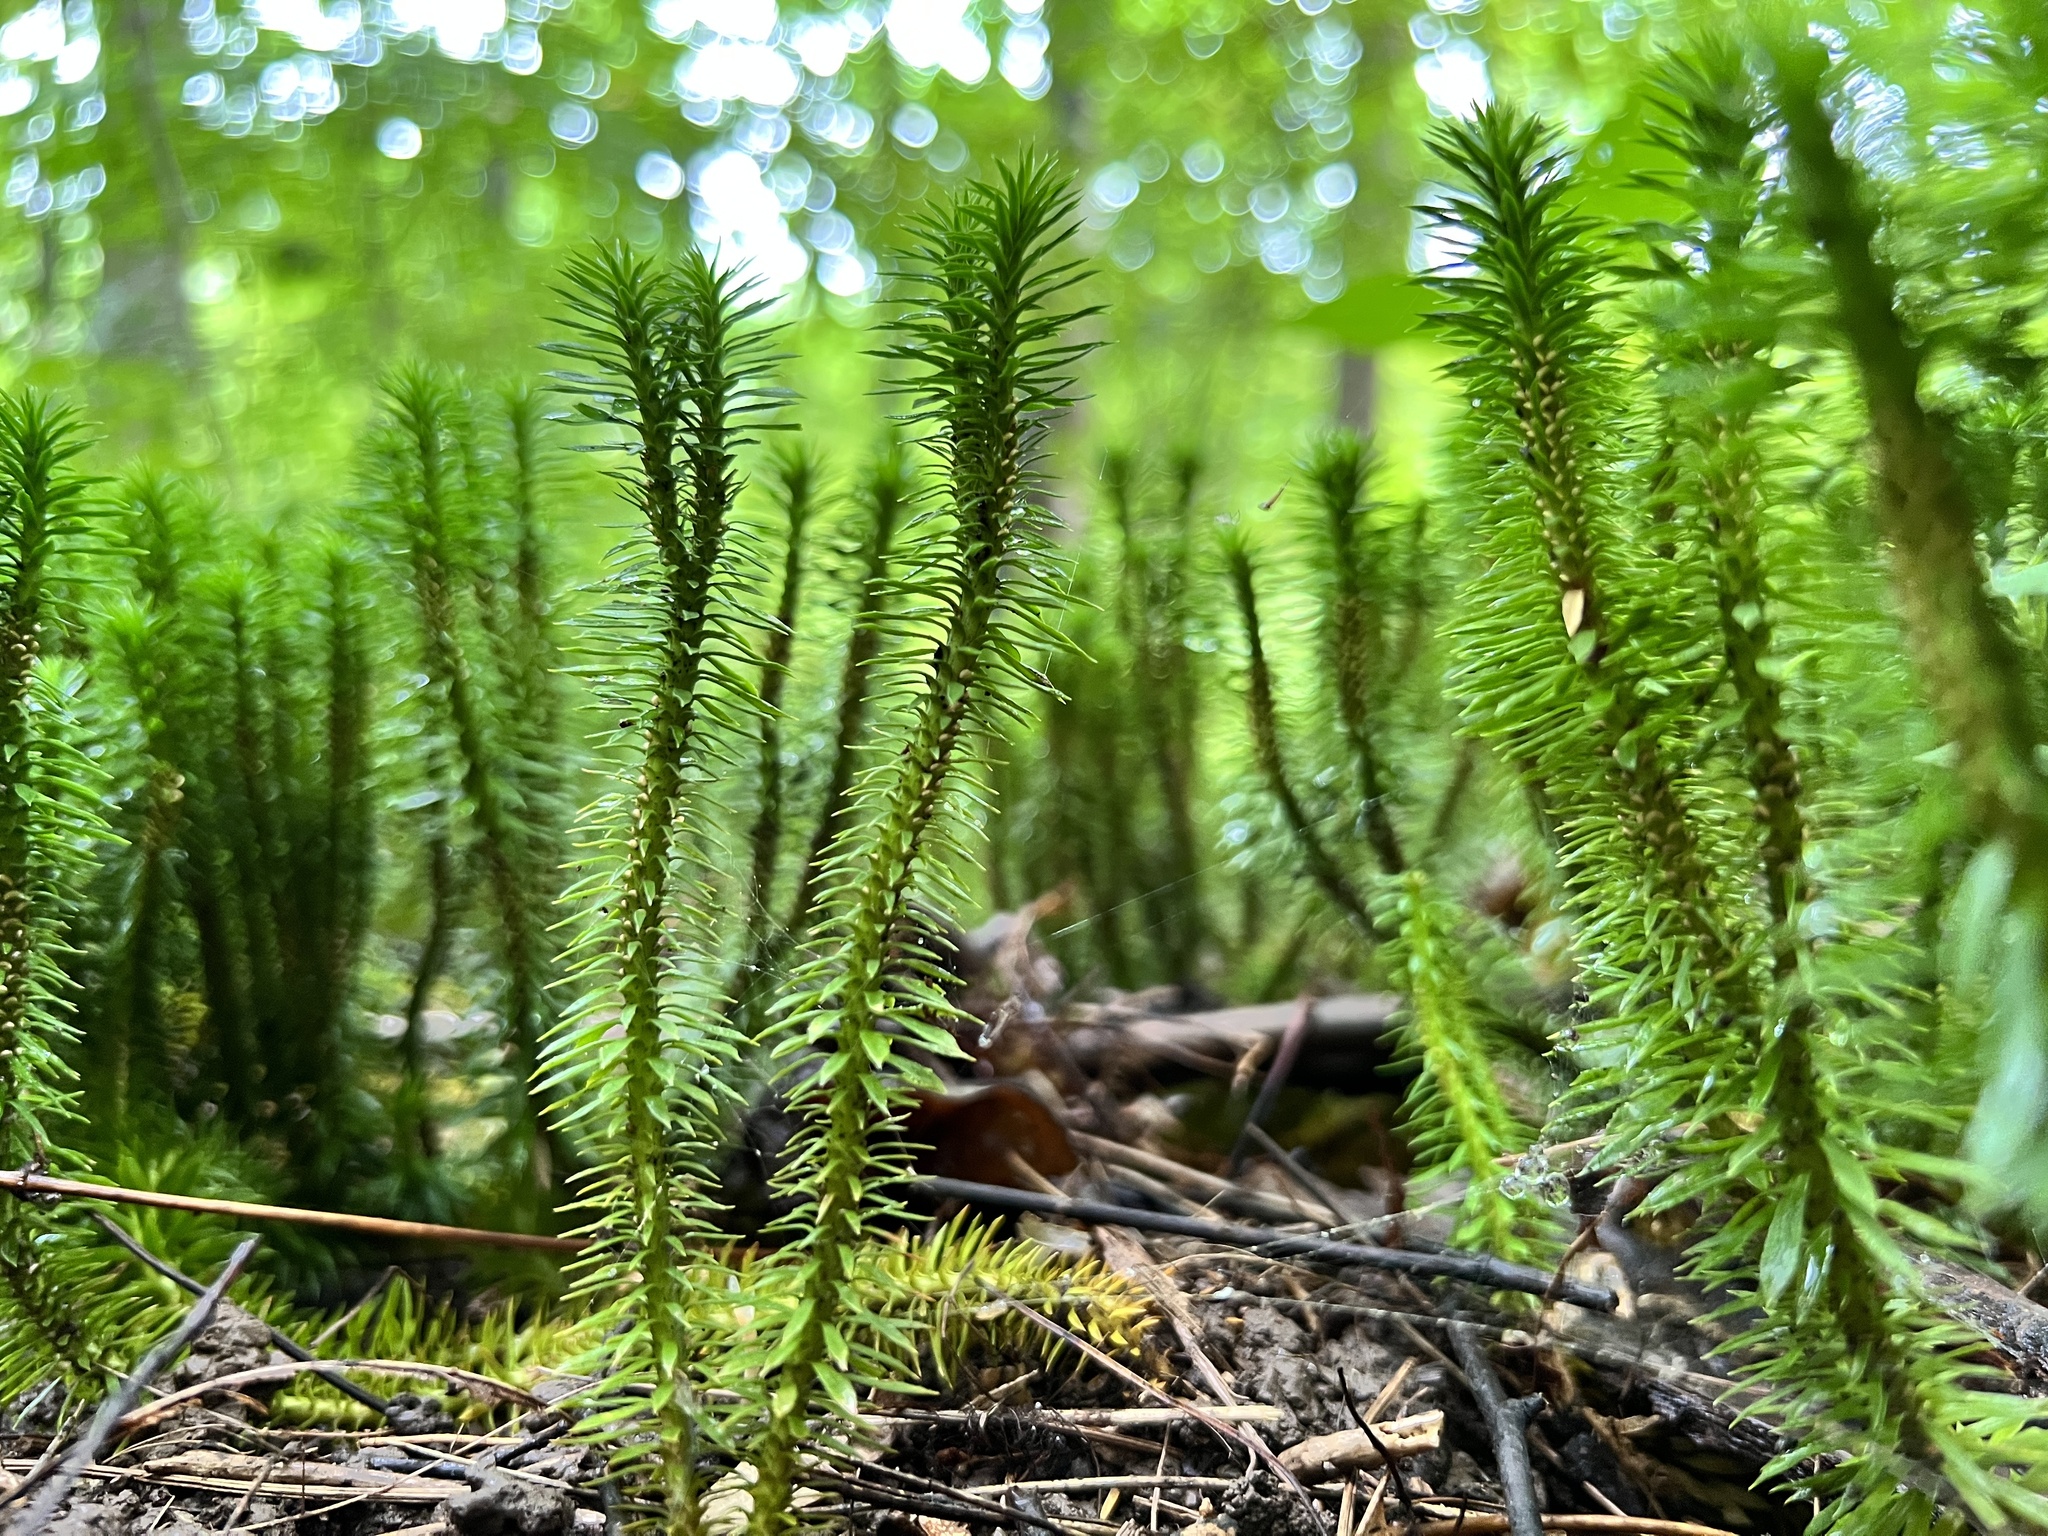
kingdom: Plantae
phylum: Tracheophyta
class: Lycopodiopsida
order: Lycopodiales
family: Lycopodiaceae
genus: Huperzia
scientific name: Huperzia lucidula
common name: Shining clubmoss
